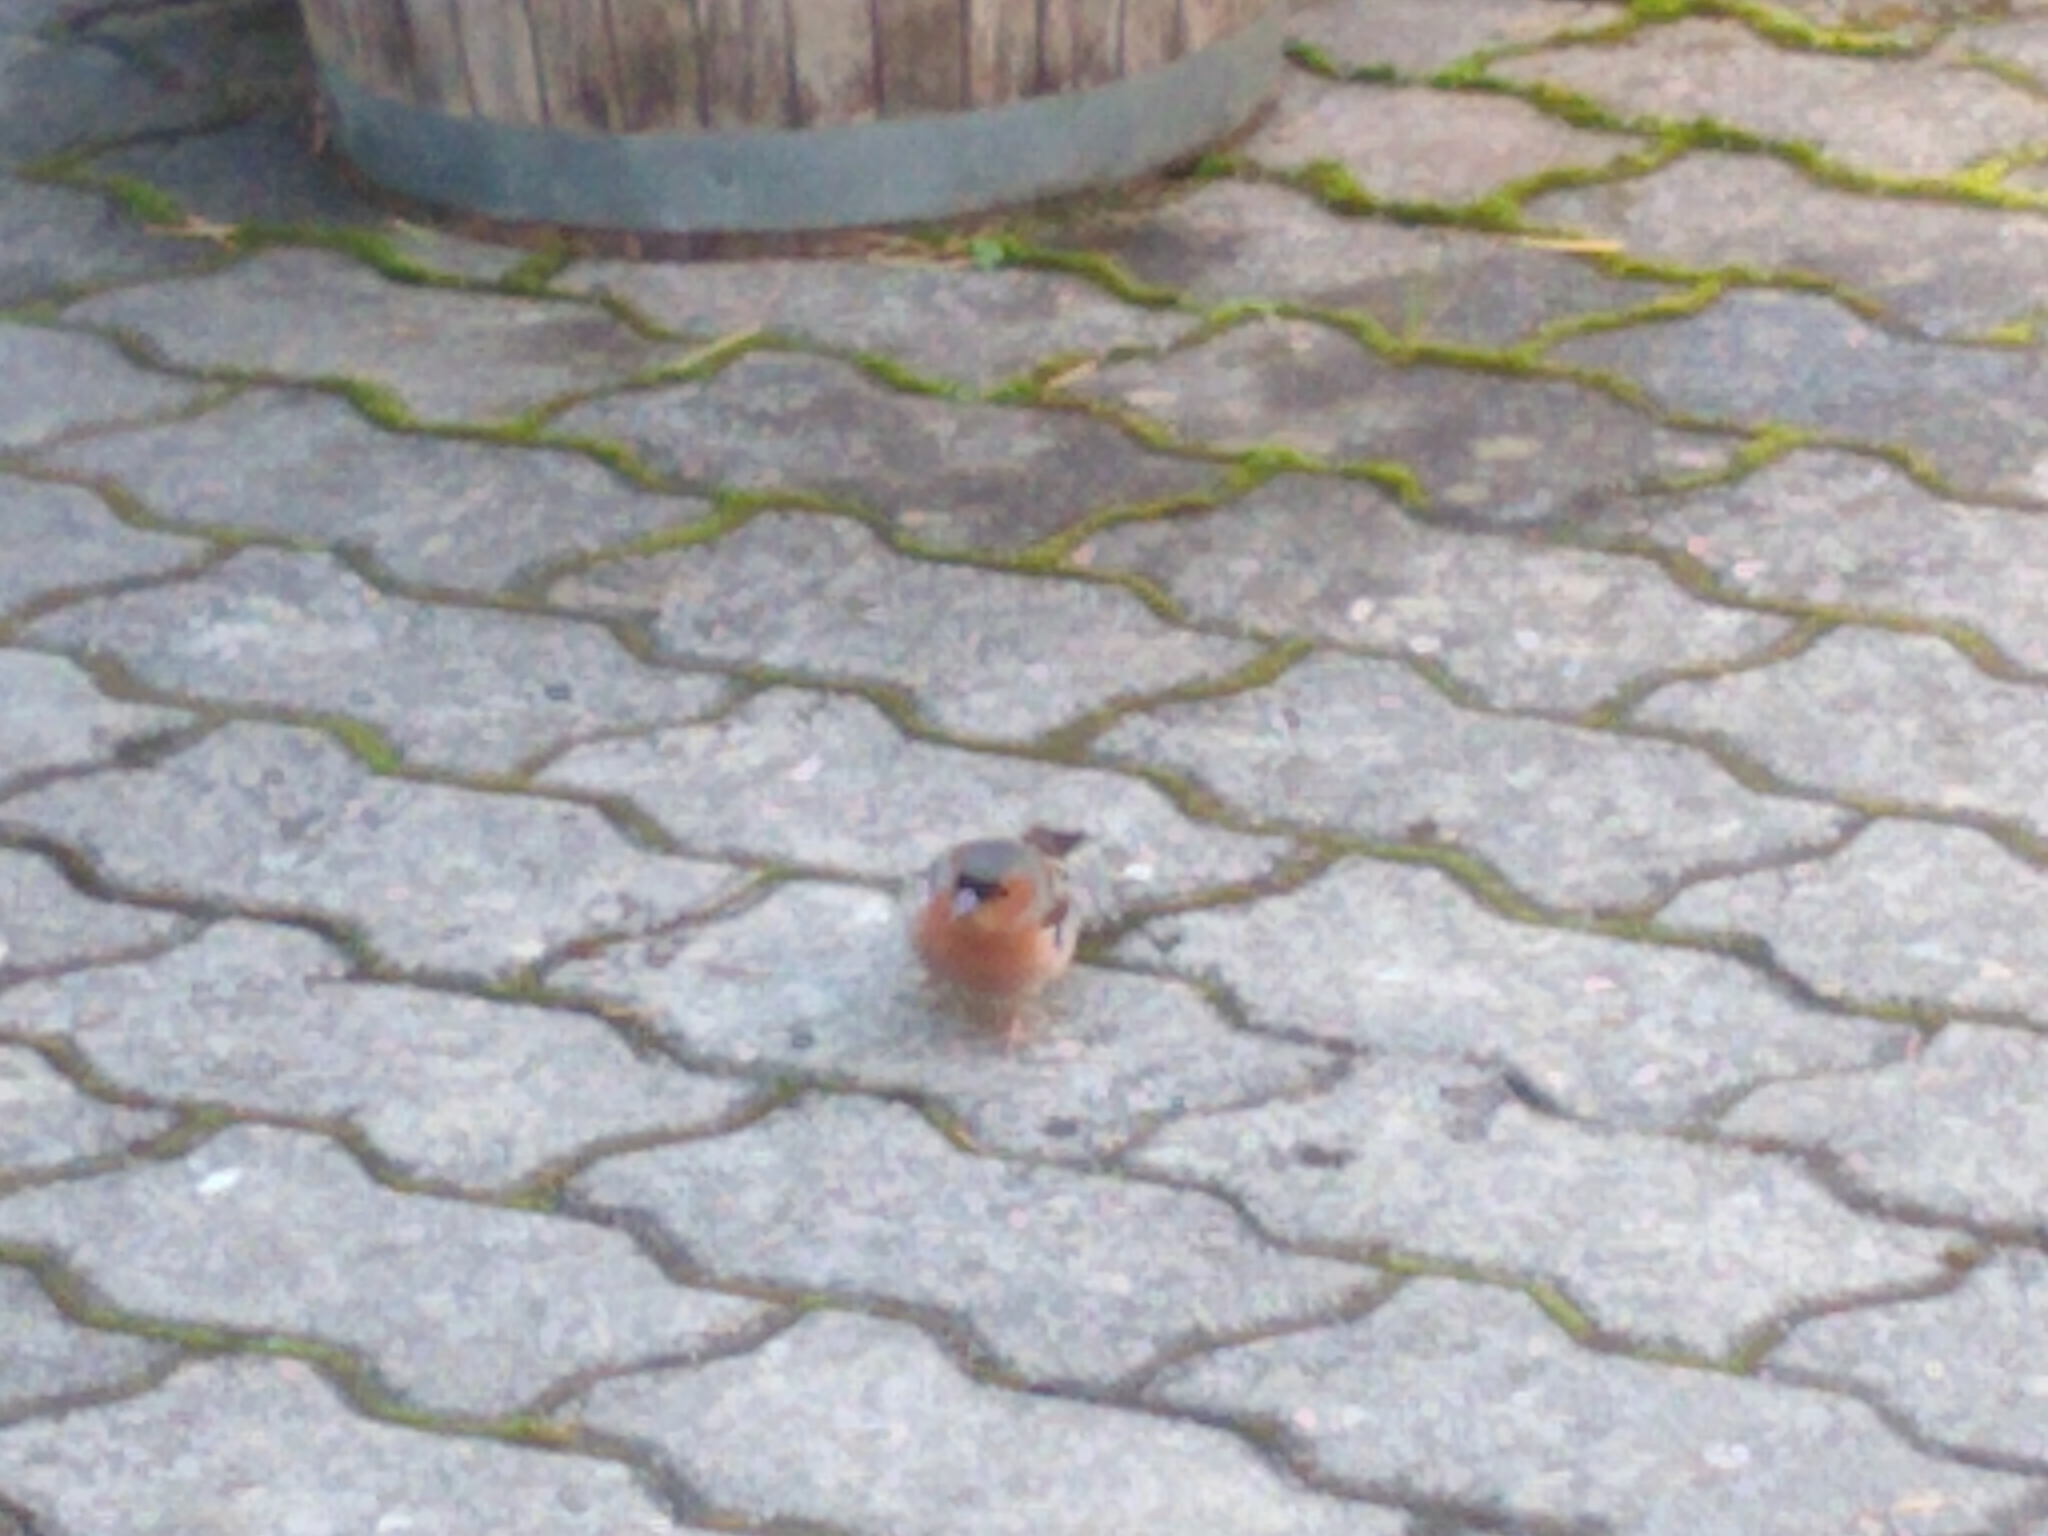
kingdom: Animalia
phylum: Chordata
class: Aves
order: Passeriformes
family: Fringillidae
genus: Fringilla
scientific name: Fringilla coelebs
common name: Common chaffinch
